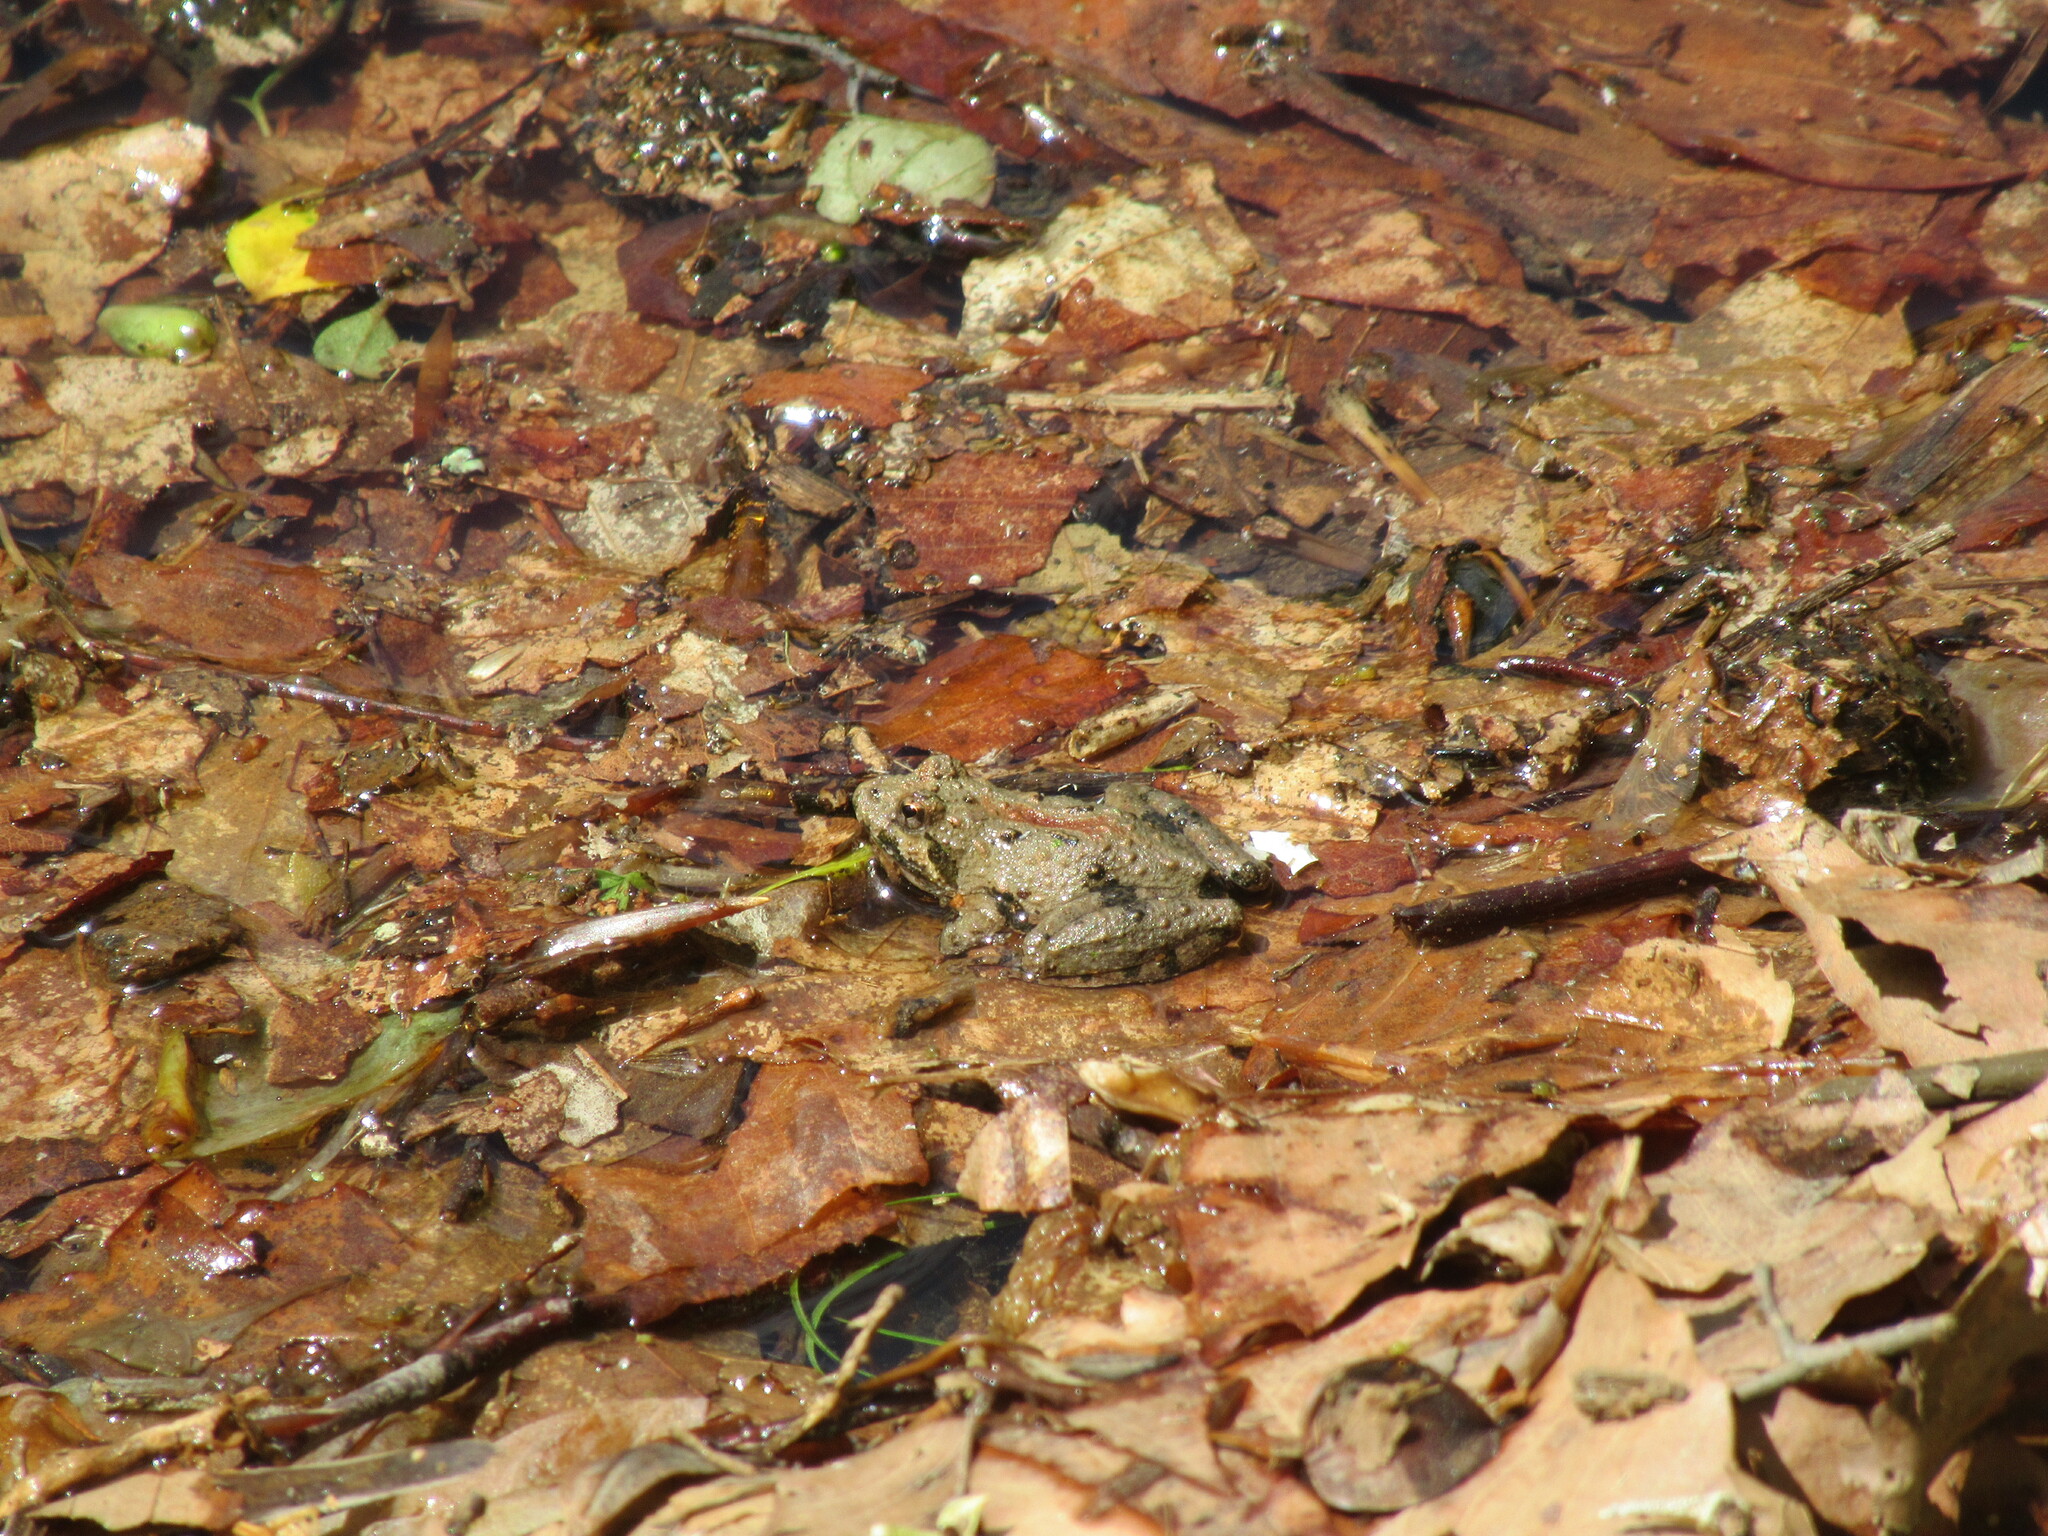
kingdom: Animalia
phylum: Chordata
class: Amphibia
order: Anura
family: Hylidae
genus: Acris
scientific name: Acris crepitans
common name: Northern cricket frog
